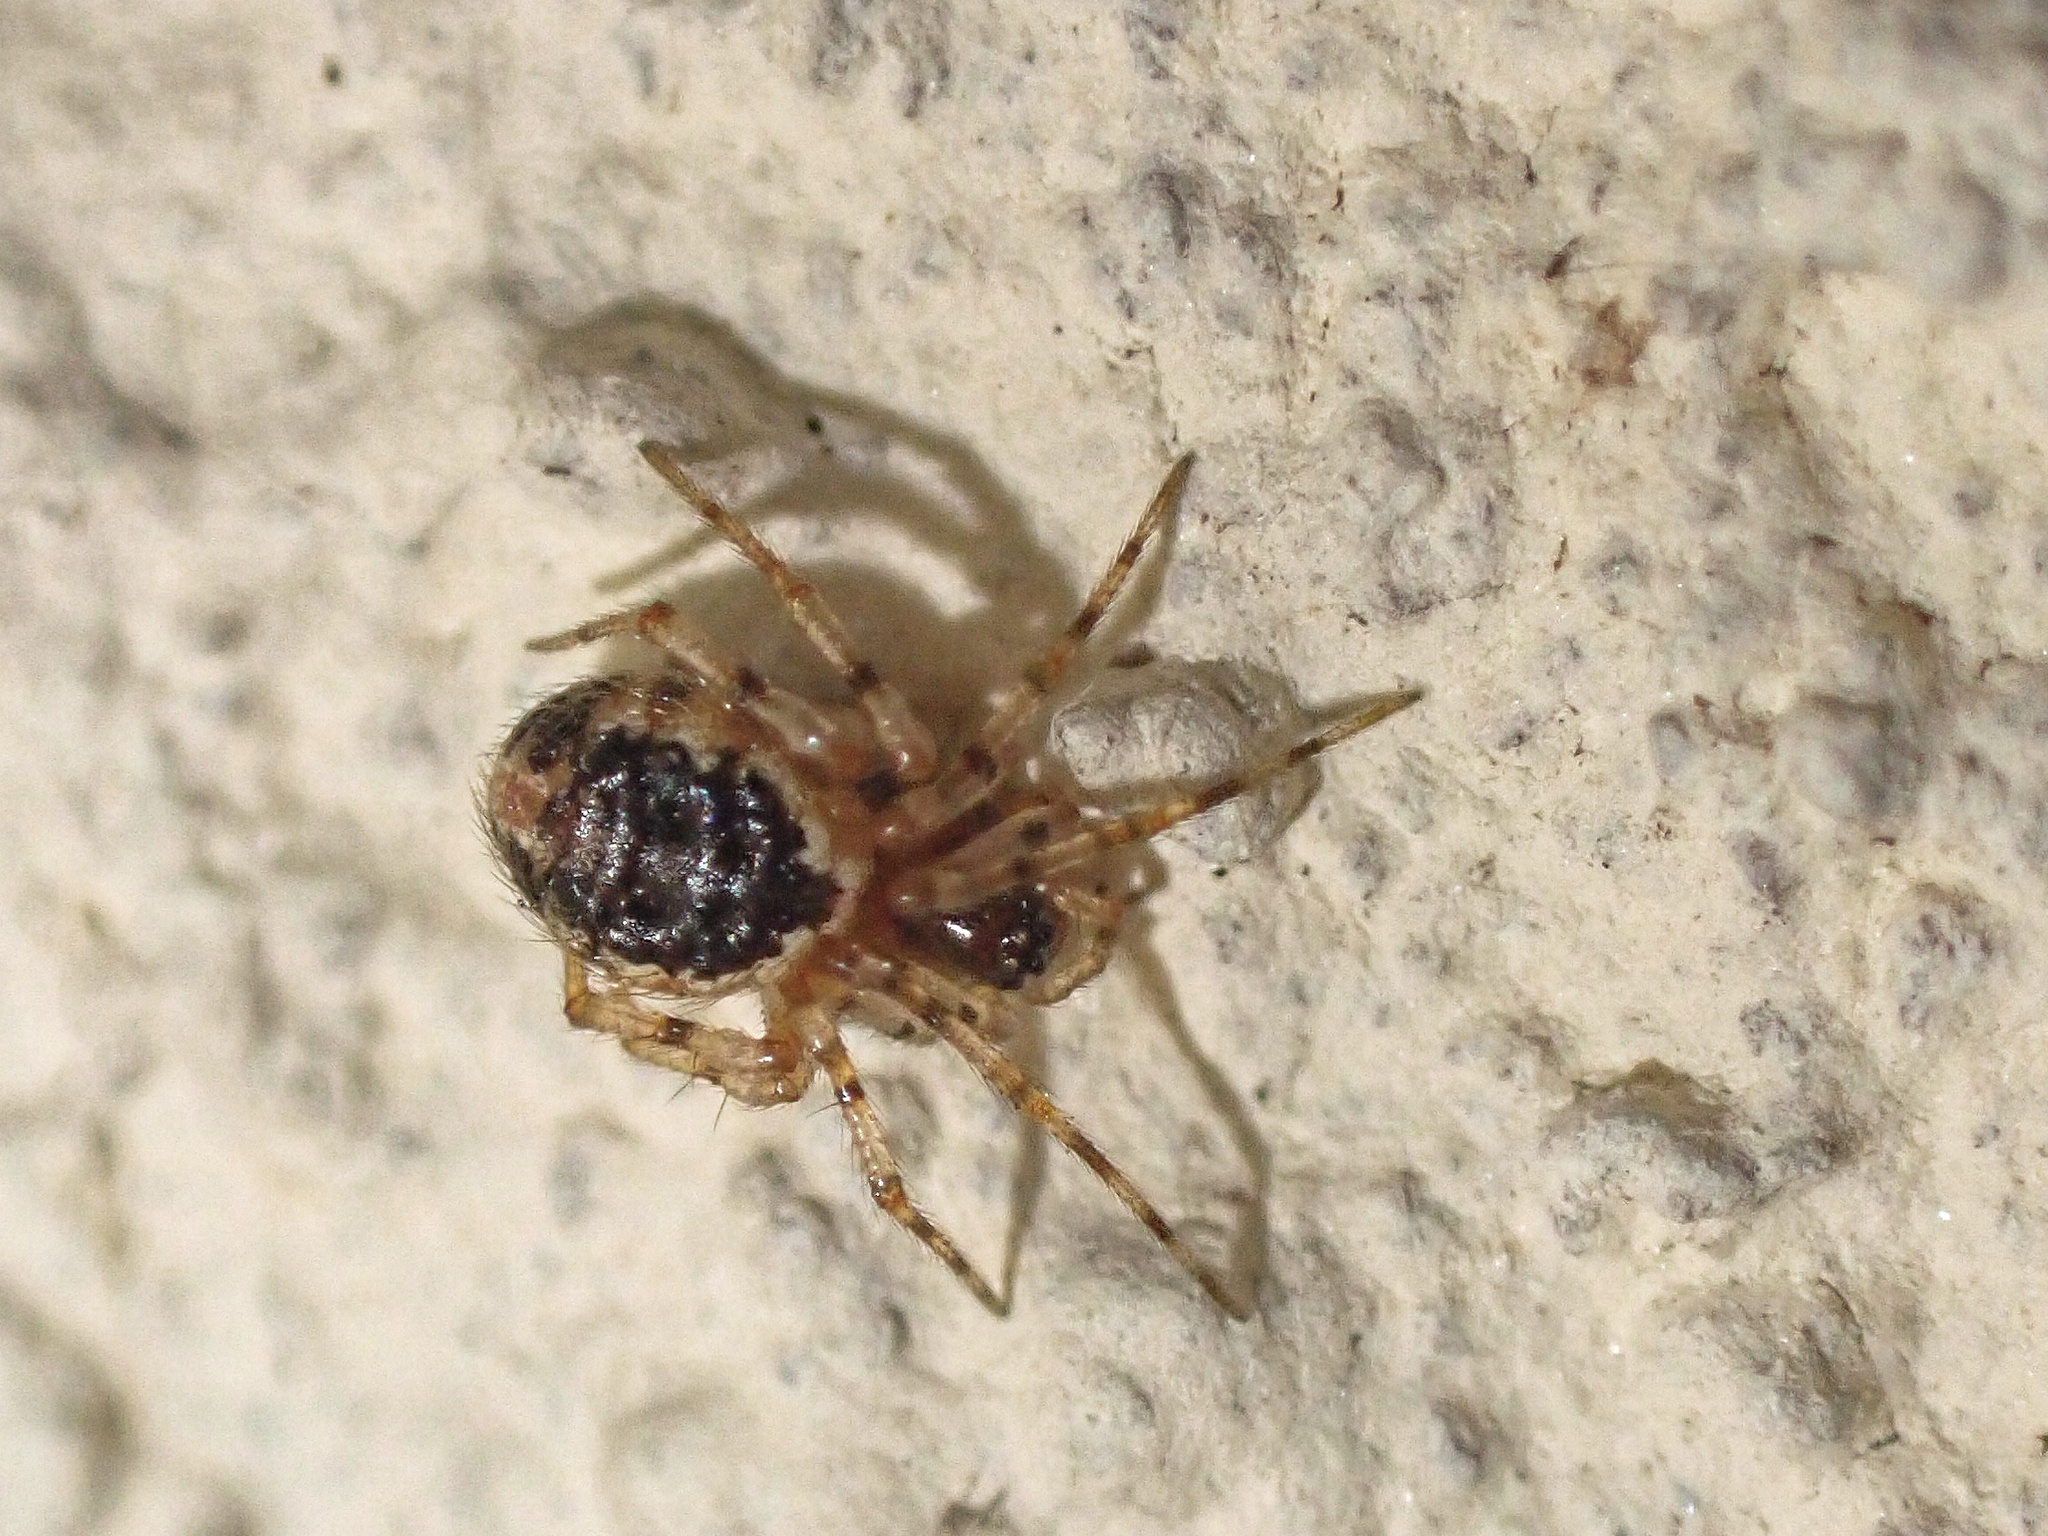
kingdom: Animalia
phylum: Arthropoda
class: Arachnida
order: Araneae
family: Theridiidae
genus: Sardinidion
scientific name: Sardinidion blackwalli
